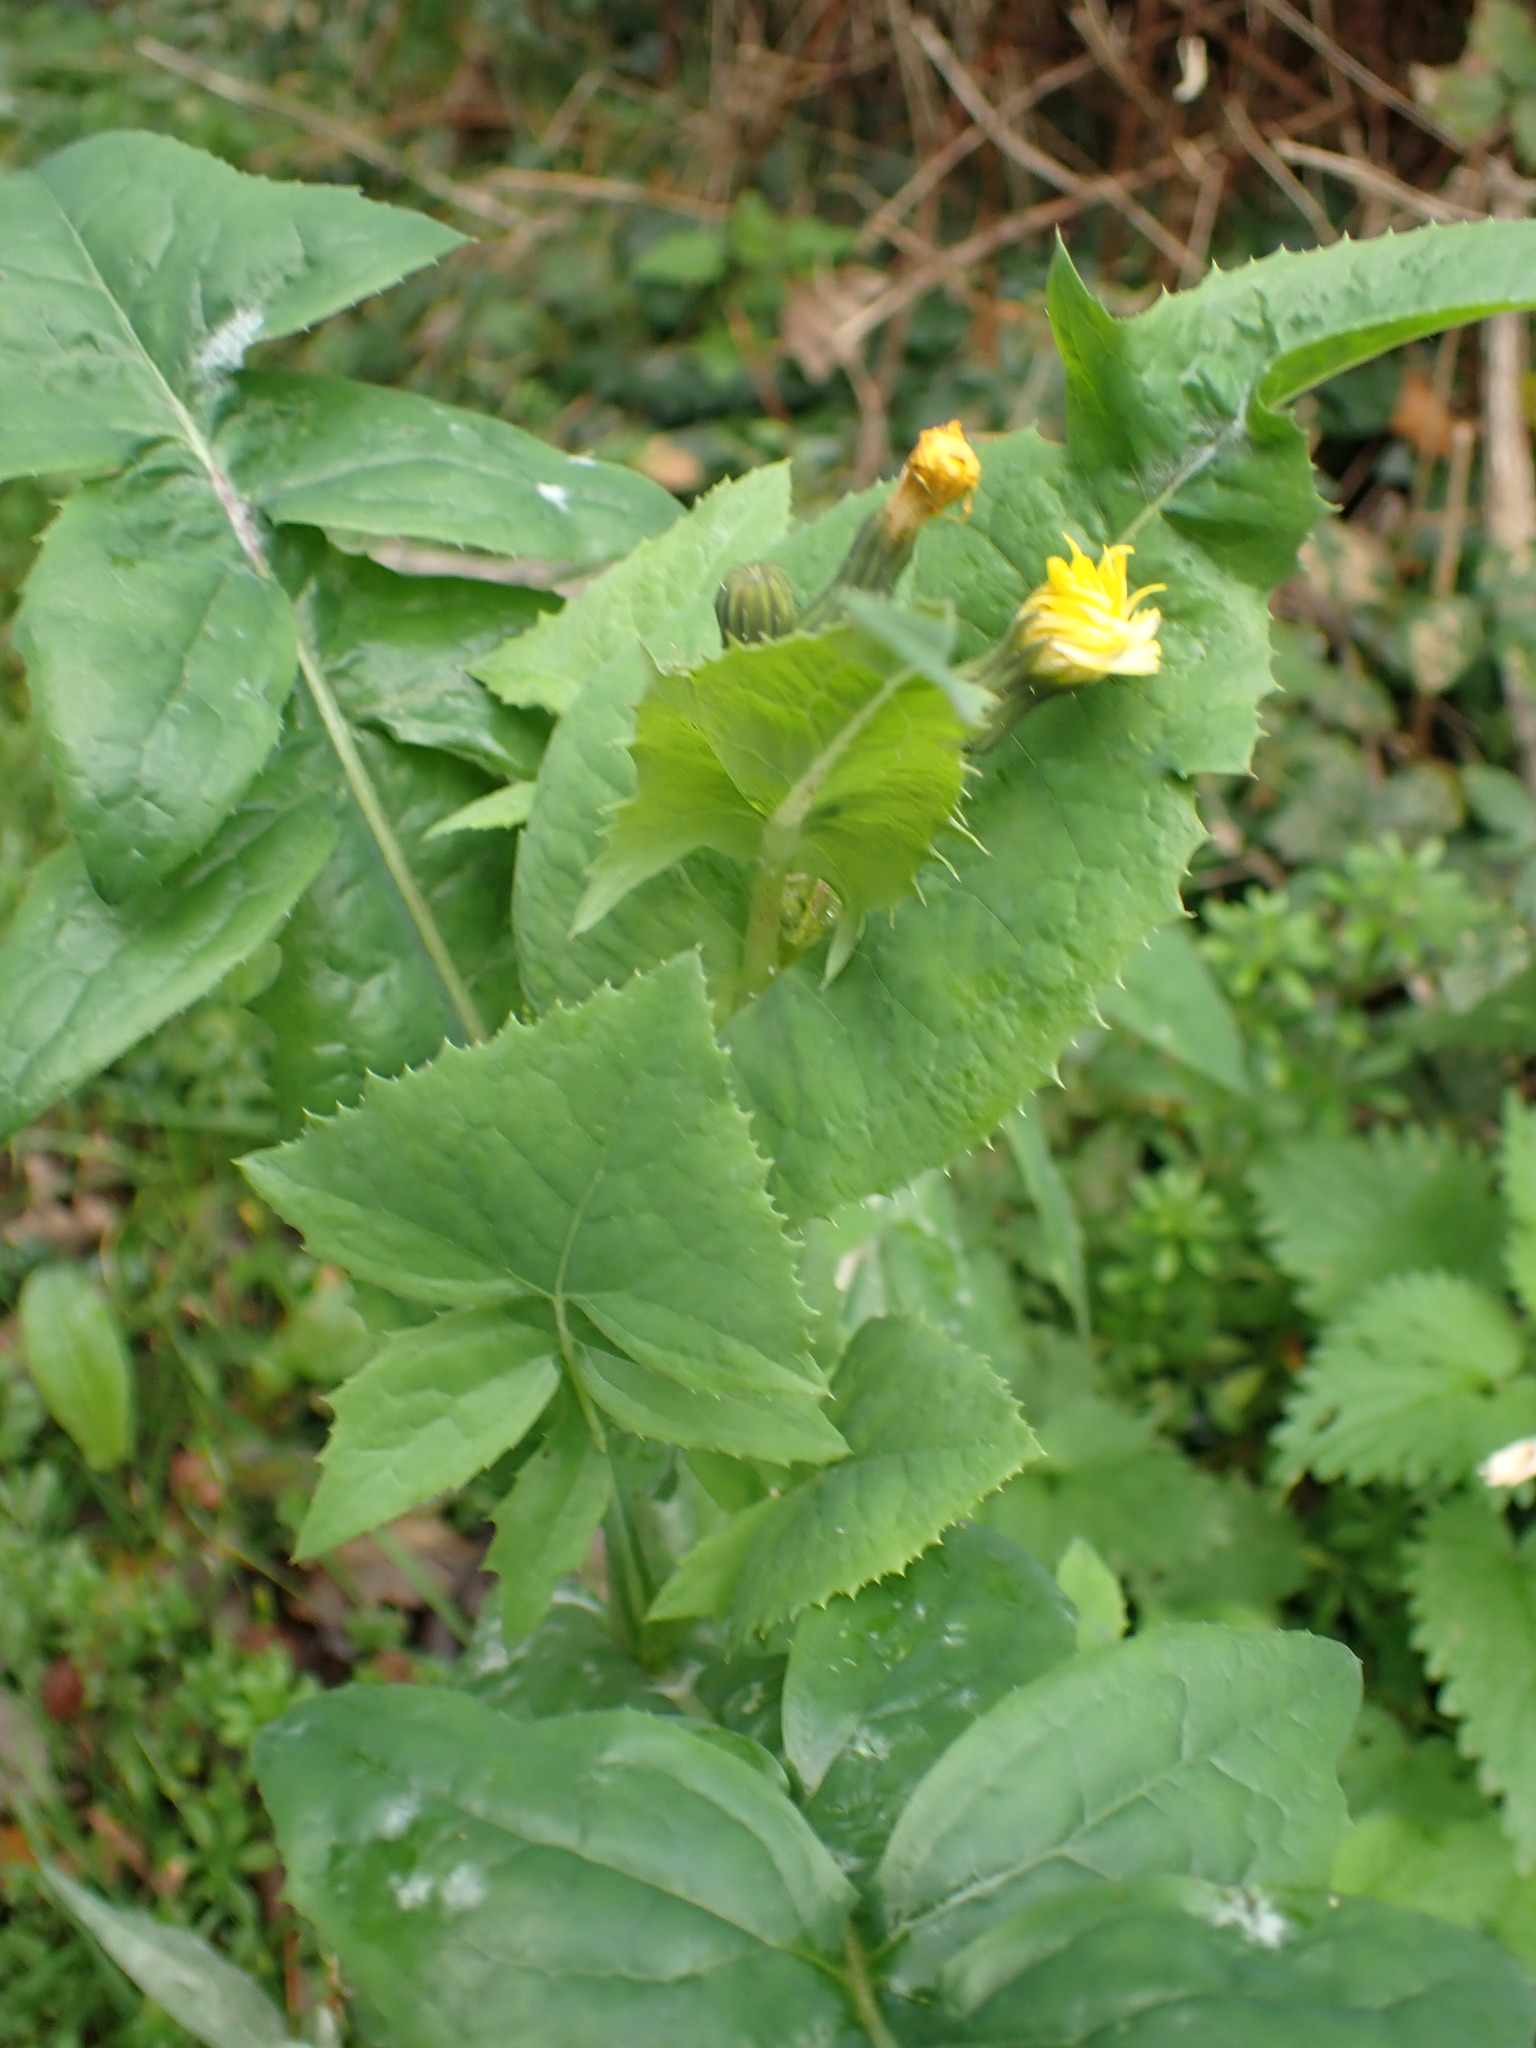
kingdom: Plantae
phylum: Tracheophyta
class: Magnoliopsida
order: Asterales
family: Asteraceae
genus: Sonchus
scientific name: Sonchus oleraceus
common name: Common sowthistle
